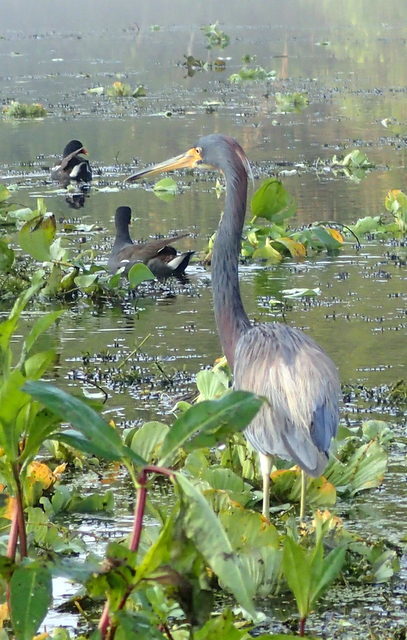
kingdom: Animalia
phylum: Chordata
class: Aves
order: Pelecaniformes
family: Ardeidae
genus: Egretta
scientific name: Egretta tricolor
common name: Tricolored heron
